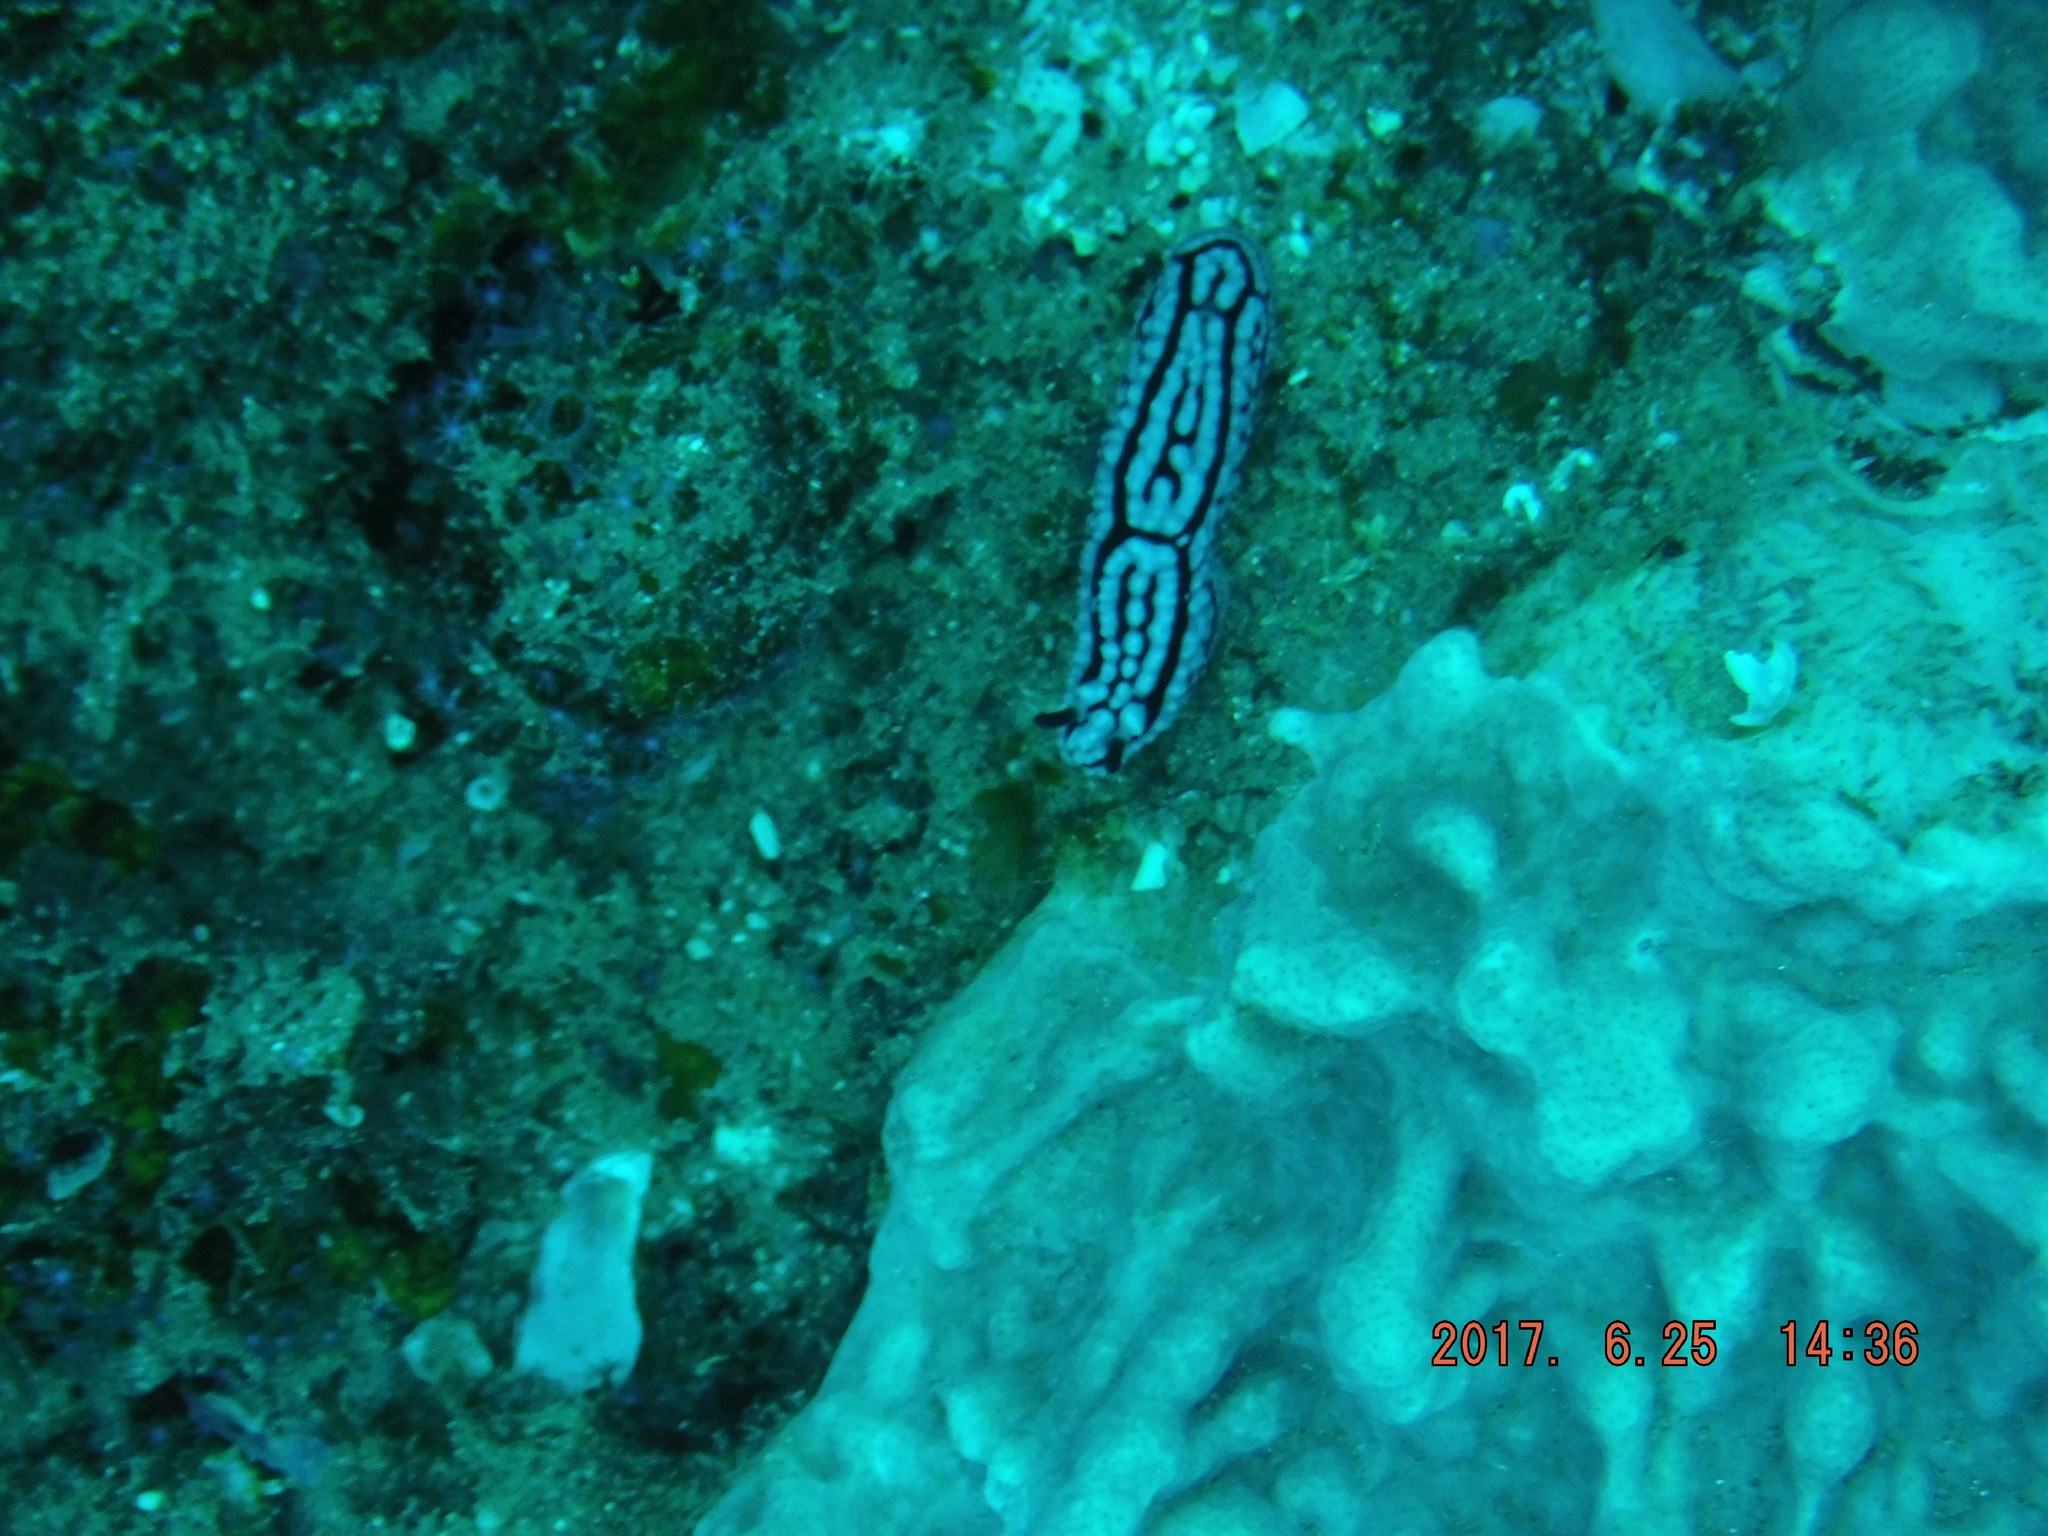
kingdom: Animalia
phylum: Mollusca
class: Gastropoda
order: Nudibranchia
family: Phyllidiidae
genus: Phyllidiella
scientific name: Phyllidiella zeylanica
